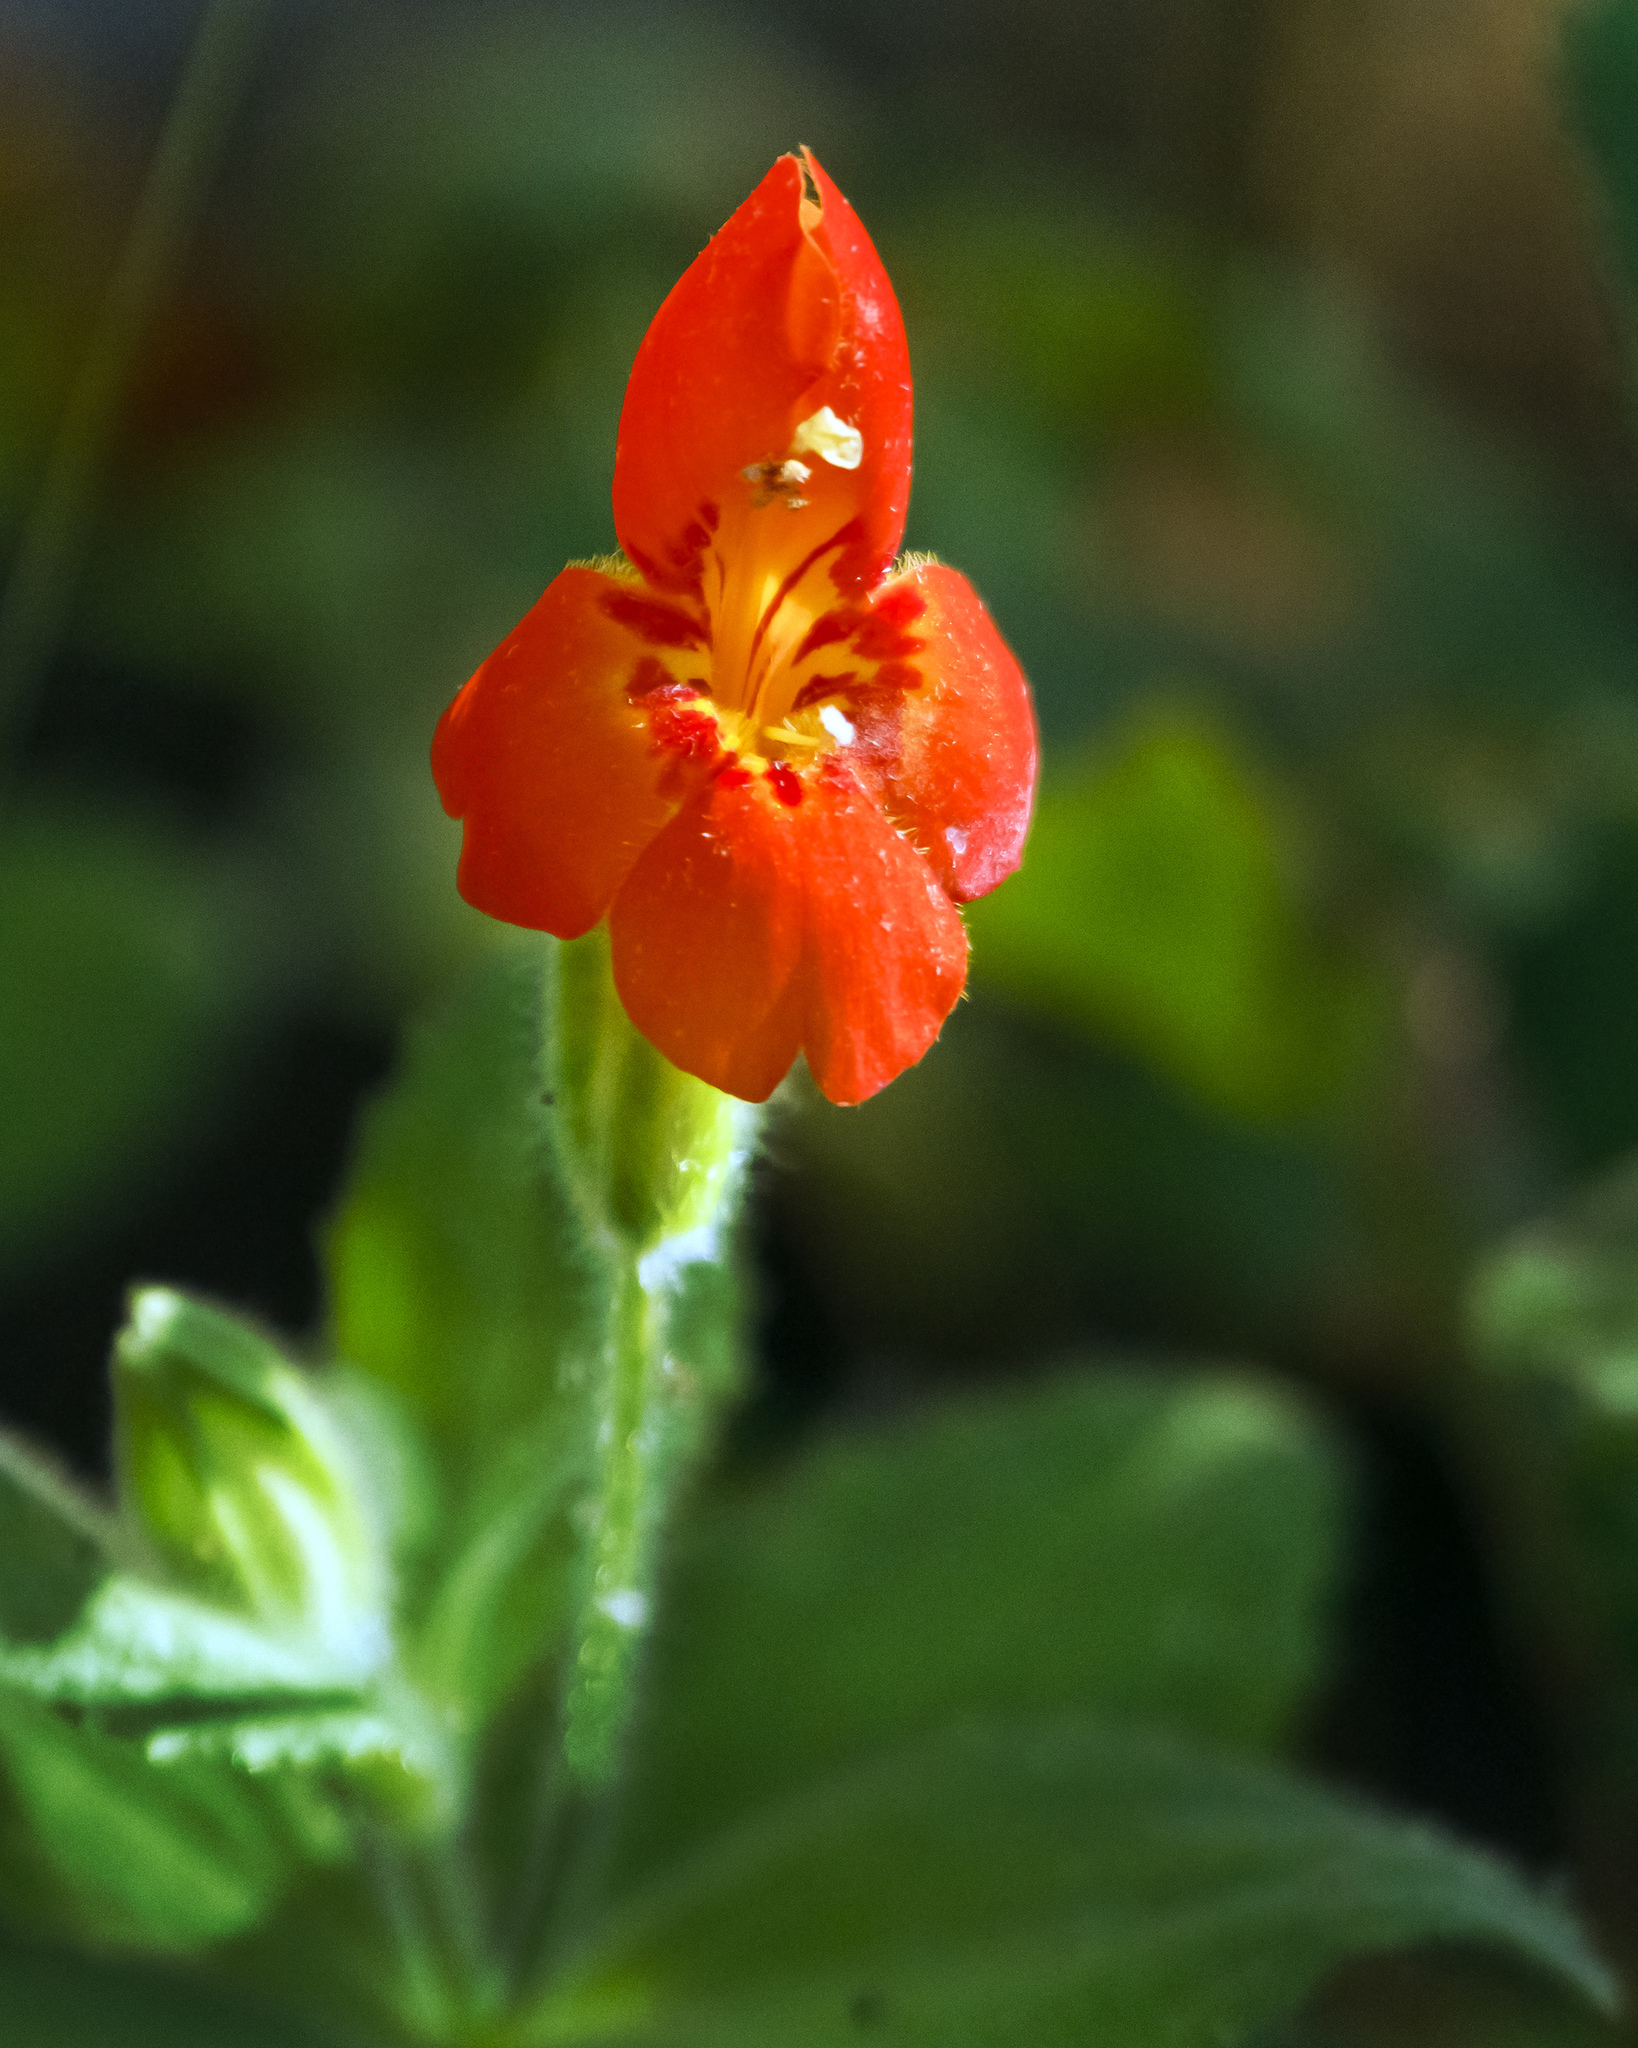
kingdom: Plantae
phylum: Tracheophyta
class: Magnoliopsida
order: Lamiales
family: Phrymaceae
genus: Erythranthe
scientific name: Erythranthe cardinalis
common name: Scarlet monkey-flower
